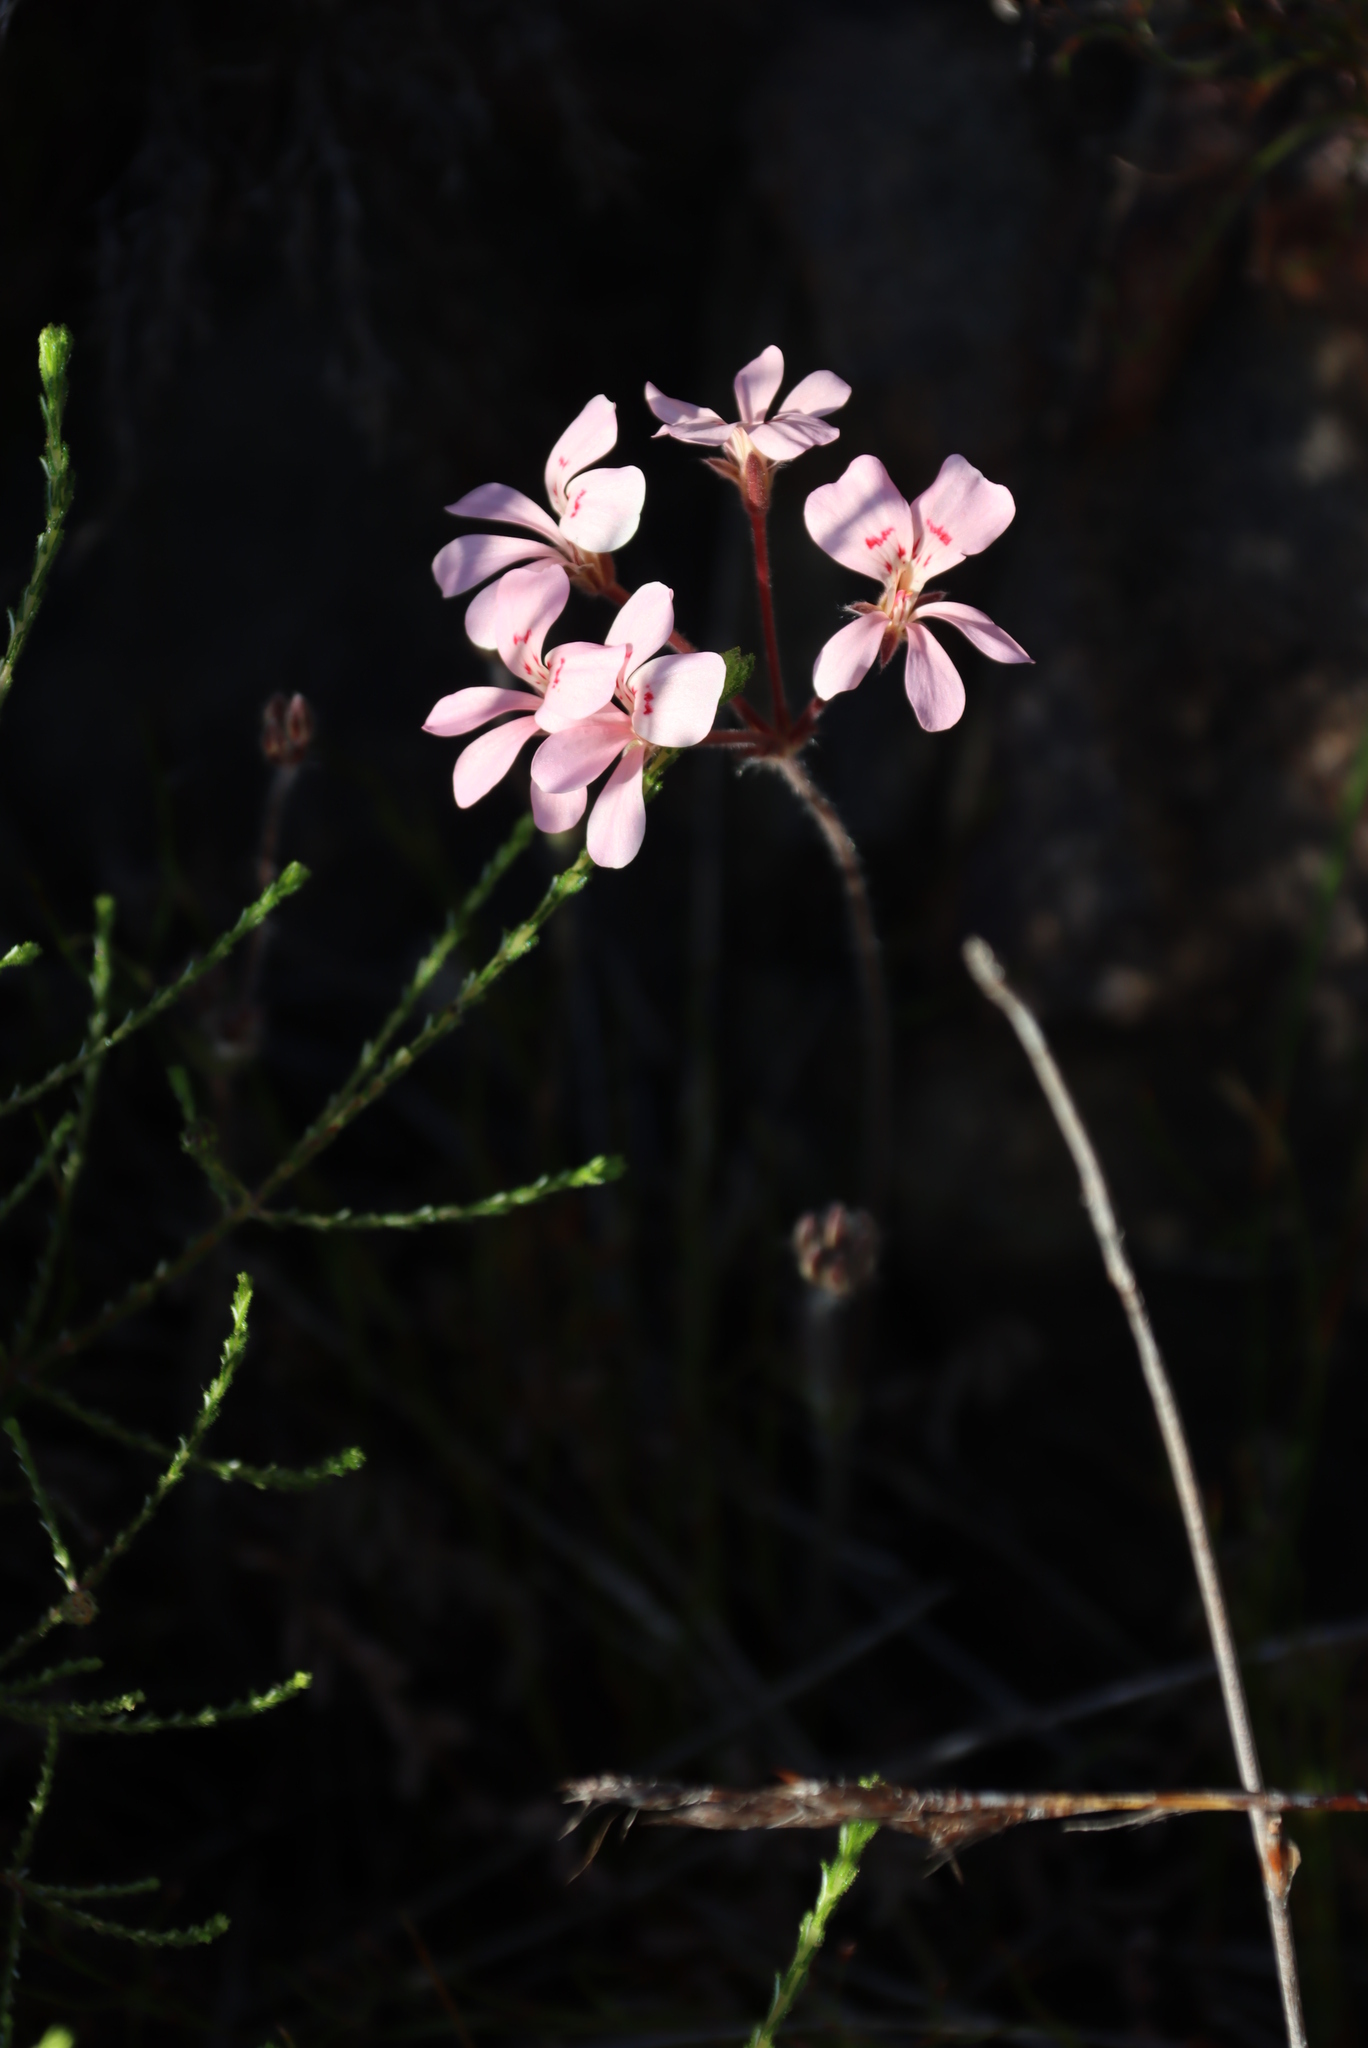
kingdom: Plantae
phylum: Tracheophyta
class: Magnoliopsida
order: Geraniales
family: Geraniaceae
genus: Pelargonium
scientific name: Pelargonium pinnatum
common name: Pinnated pelargonium
